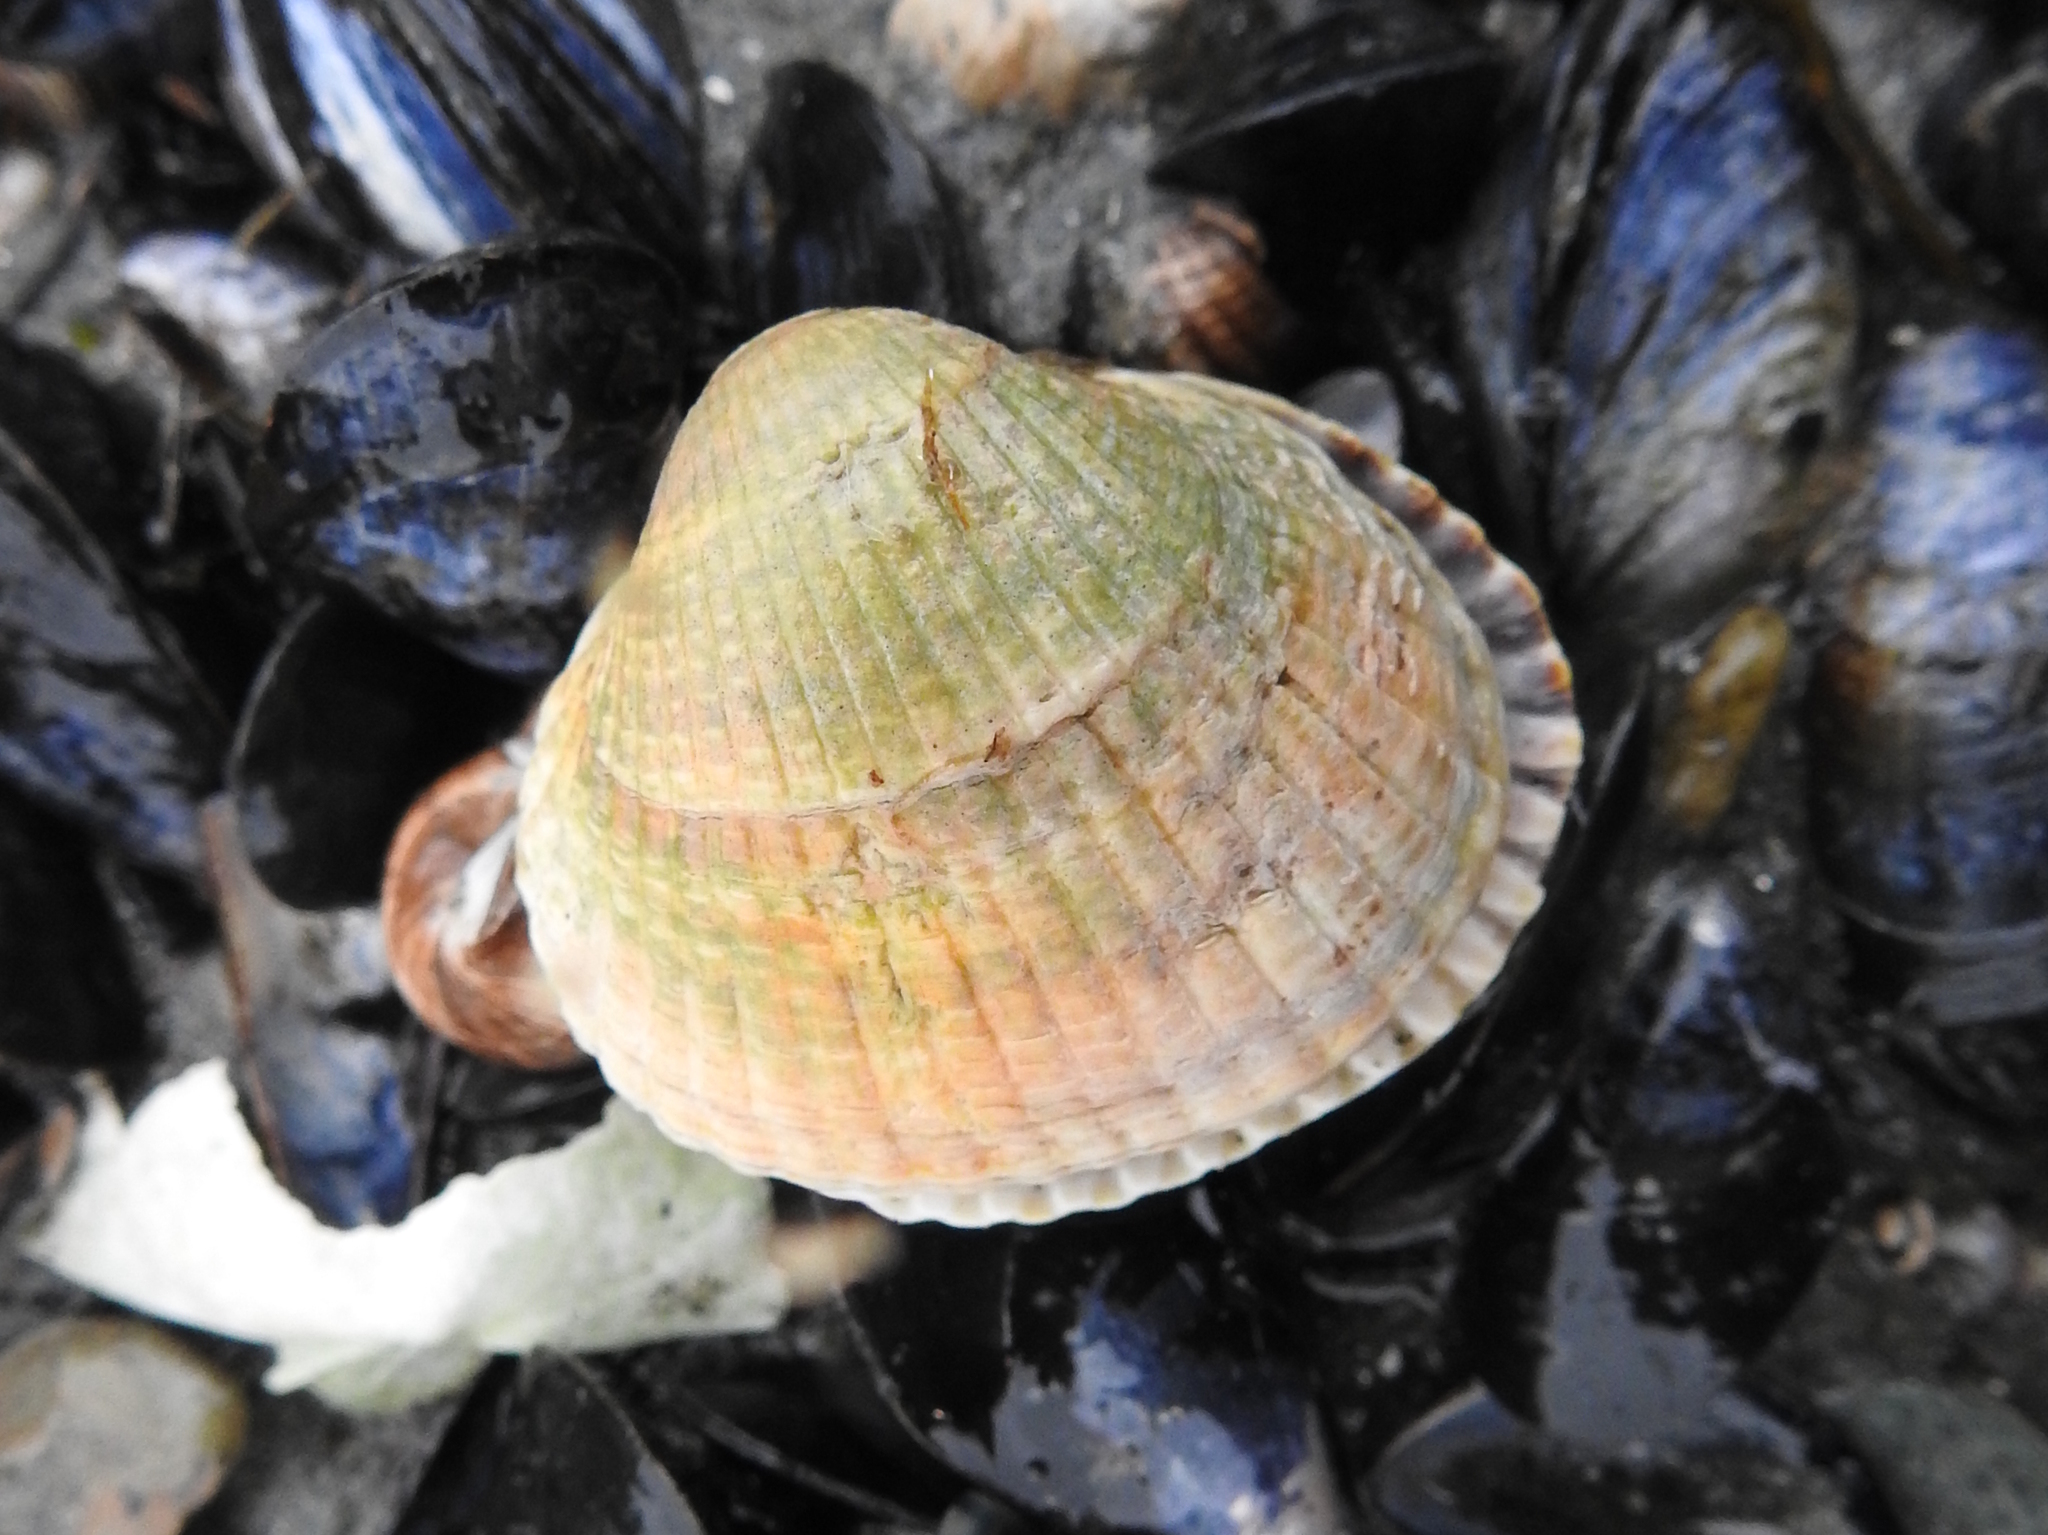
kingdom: Animalia
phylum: Mollusca
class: Bivalvia
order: Cardiida
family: Cardiidae
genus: Cerastoderma
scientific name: Cerastoderma edule
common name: Common cockle
